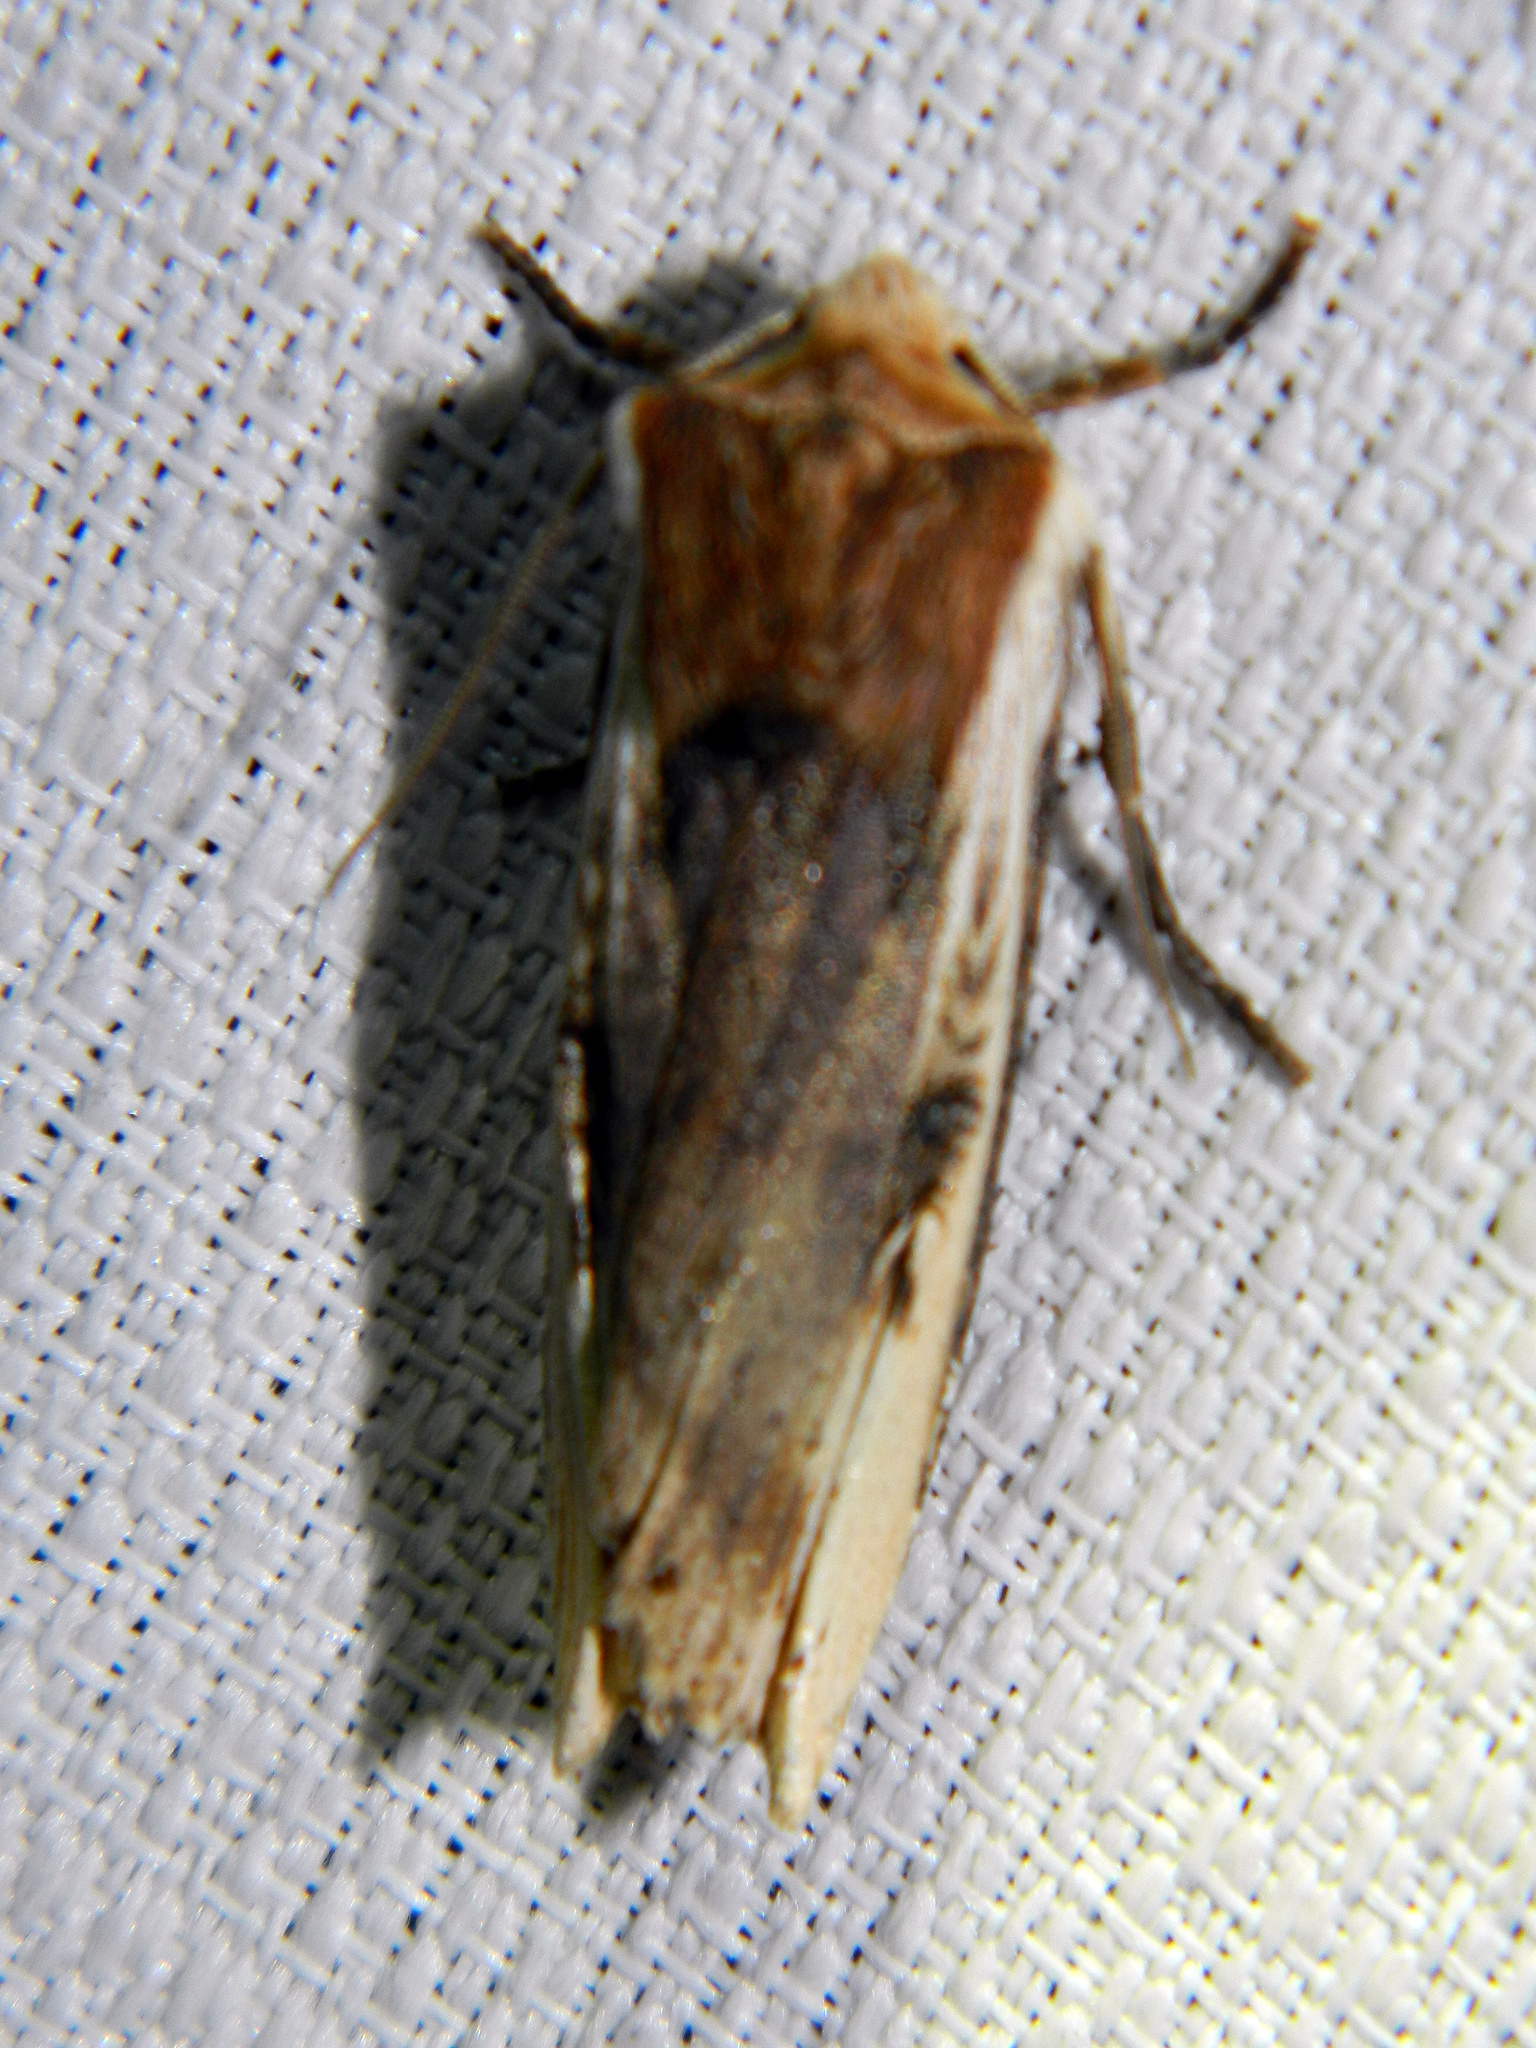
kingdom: Animalia
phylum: Arthropoda
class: Insecta
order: Lepidoptera
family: Noctuidae
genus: Xylena
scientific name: Xylena curvimacula
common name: Dot-and-dash swordgrass moth
